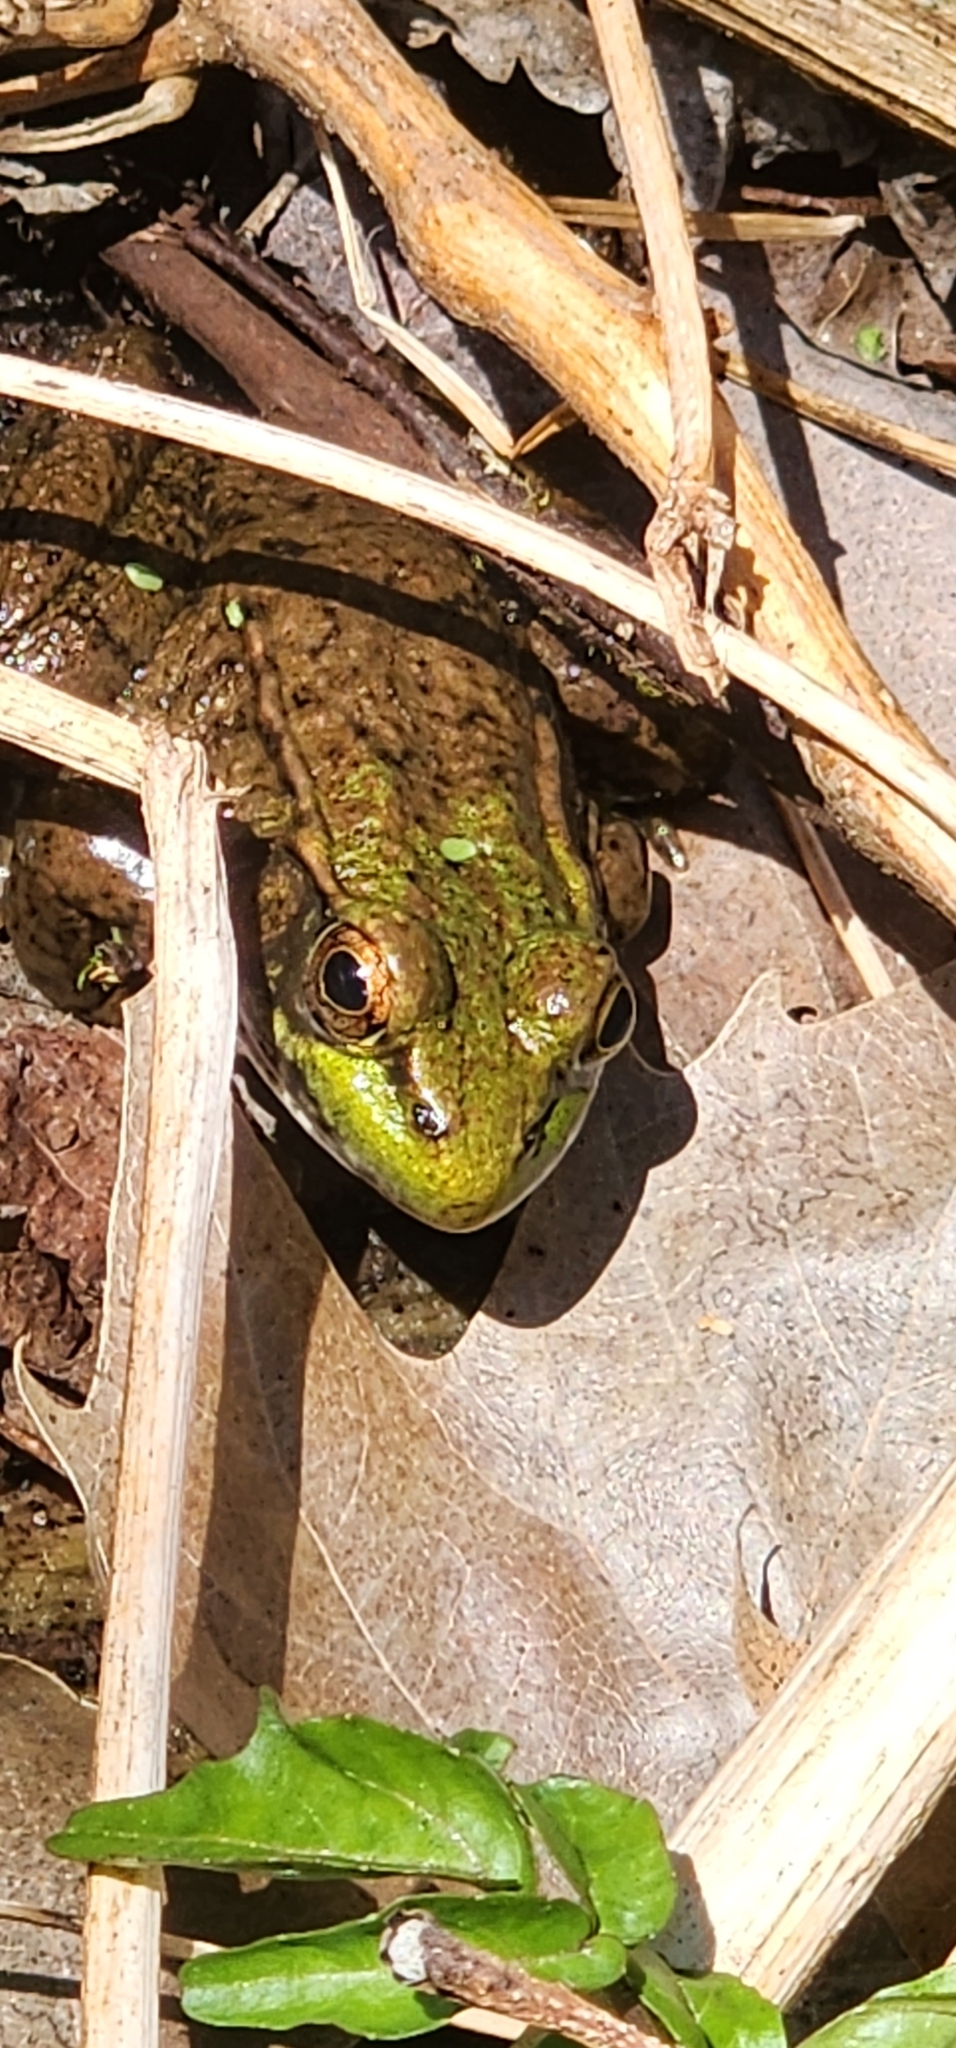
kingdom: Animalia
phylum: Chordata
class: Amphibia
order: Anura
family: Ranidae
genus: Lithobates
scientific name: Lithobates clamitans
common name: Green frog
